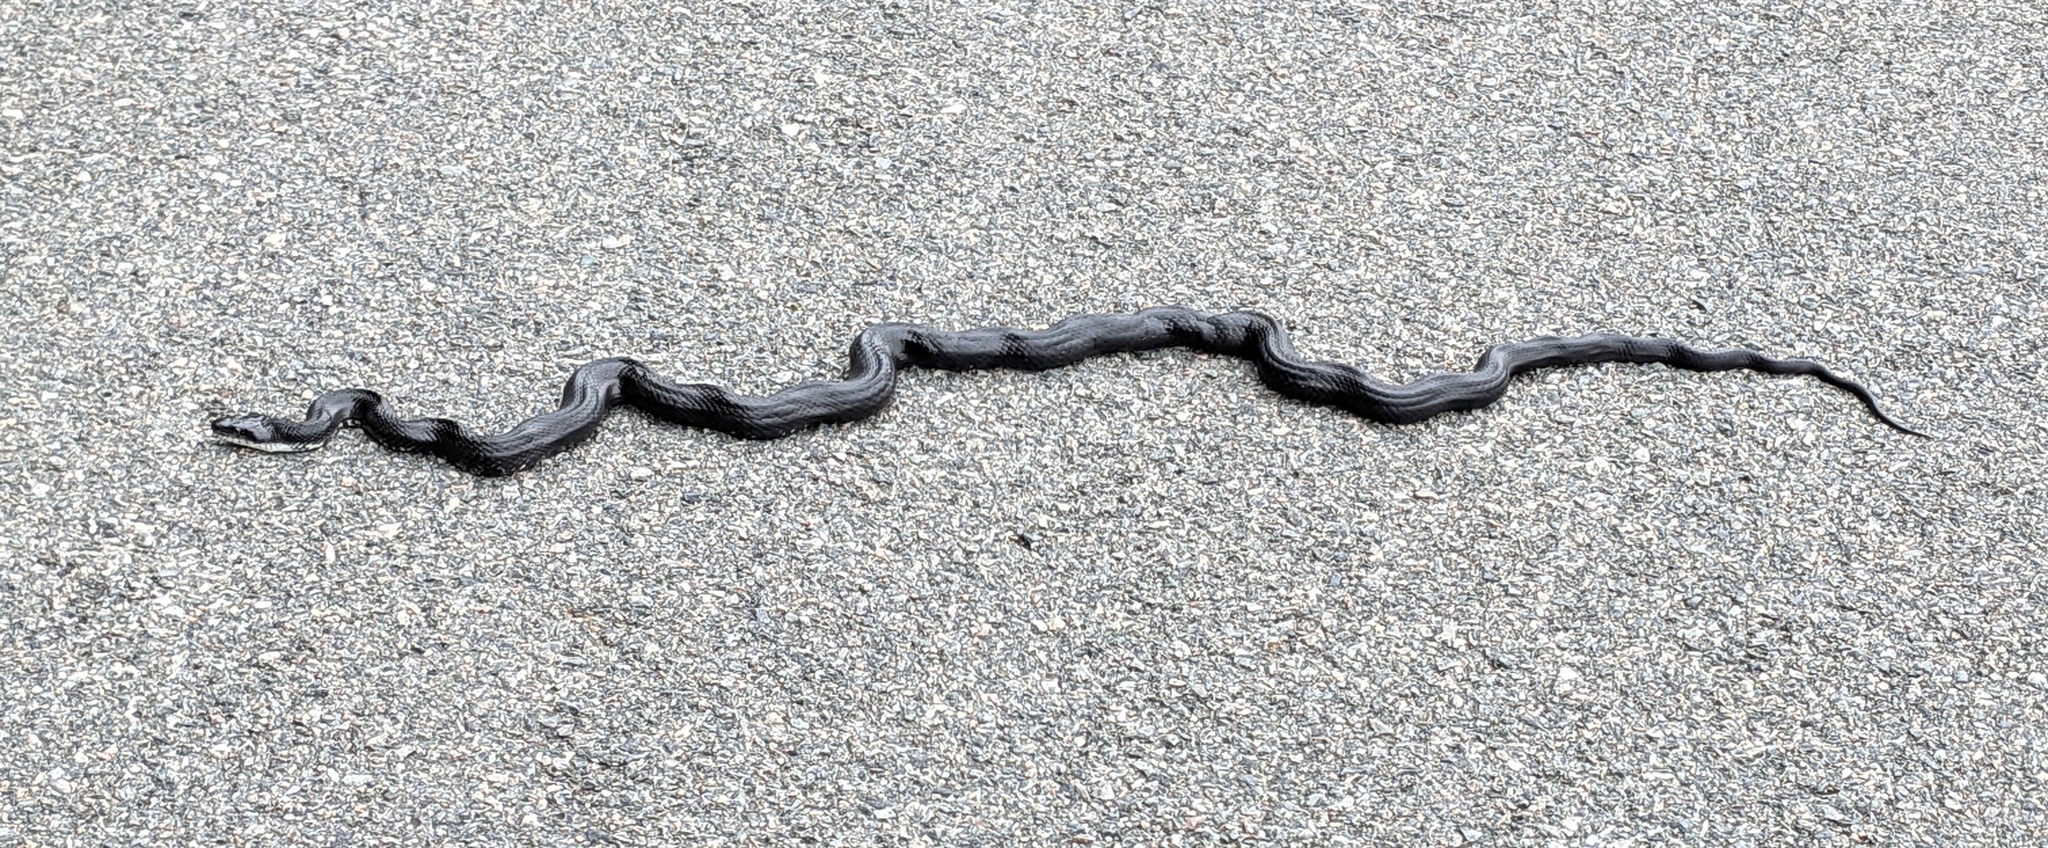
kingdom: Animalia
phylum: Chordata
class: Squamata
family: Colubridae
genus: Pantherophis
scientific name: Pantherophis alleghaniensis
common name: Eastern rat snake
